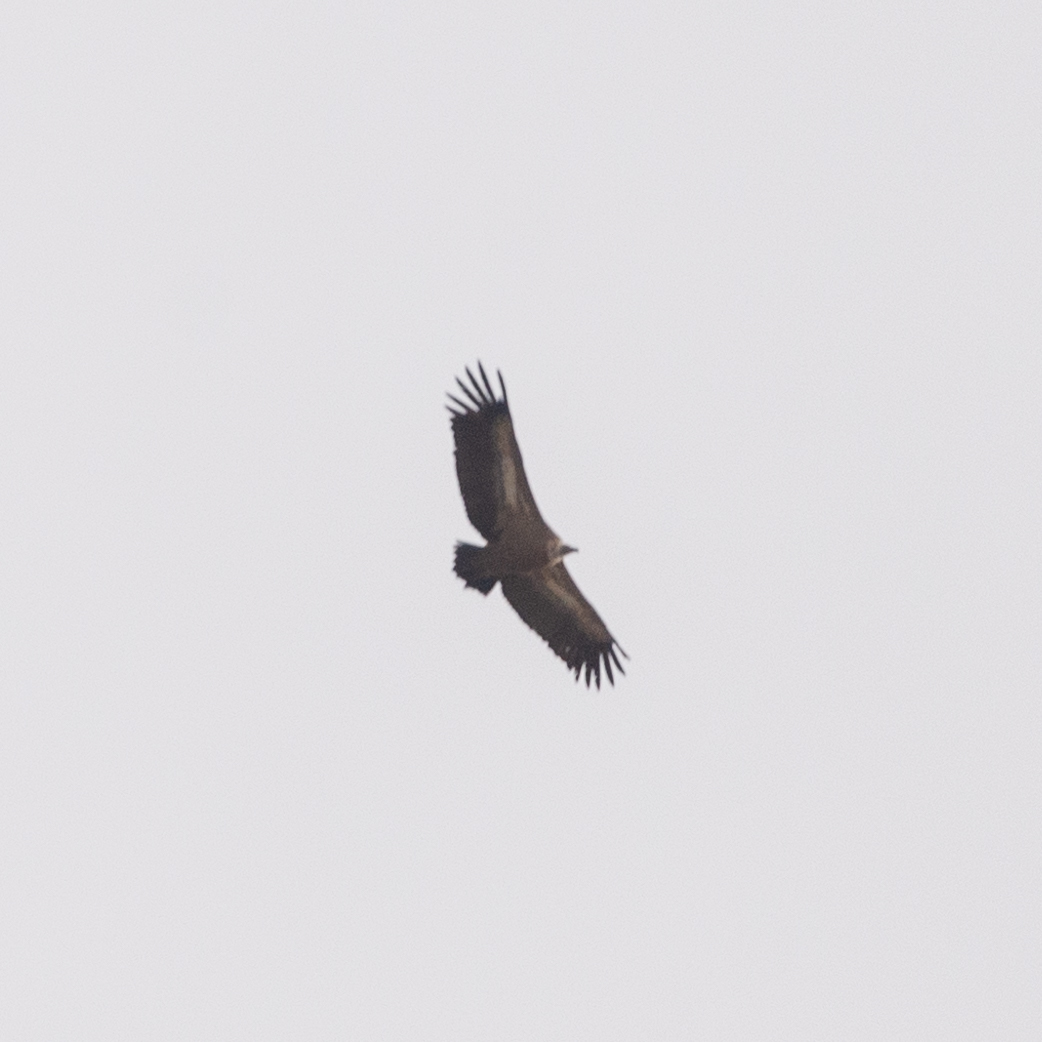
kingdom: Animalia
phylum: Chordata
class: Aves
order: Accipitriformes
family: Accipitridae
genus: Gyps
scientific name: Gyps fulvus
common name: Griffon vulture
